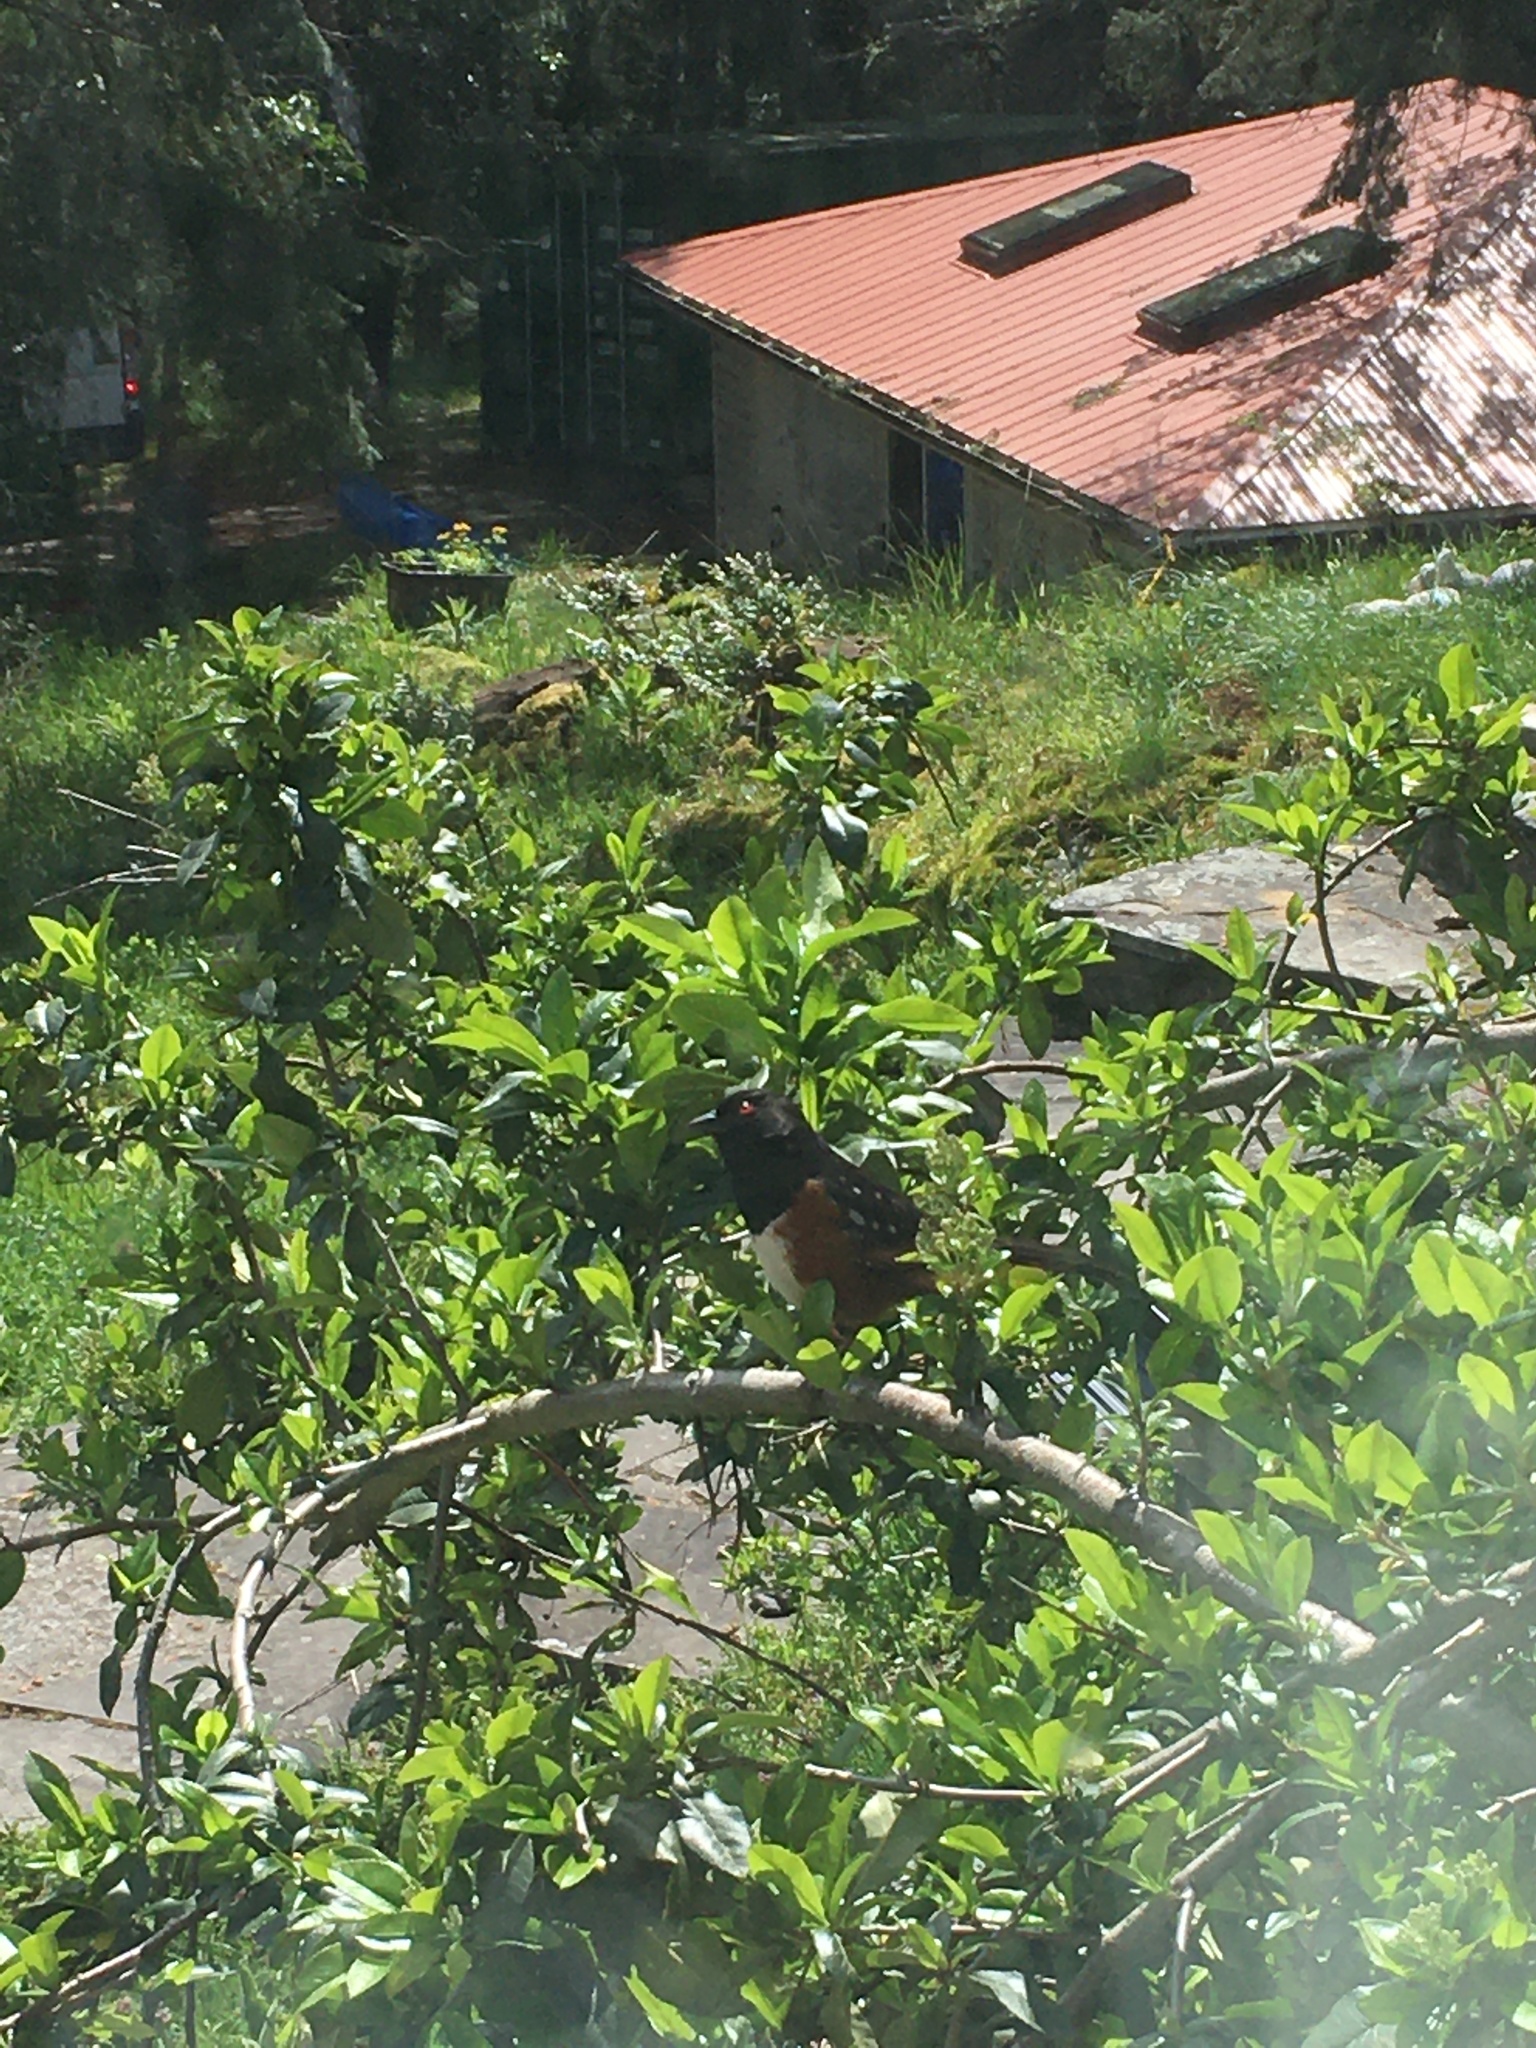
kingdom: Animalia
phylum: Chordata
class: Aves
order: Passeriformes
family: Passerellidae
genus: Pipilo
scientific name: Pipilo maculatus
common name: Spotted towhee
